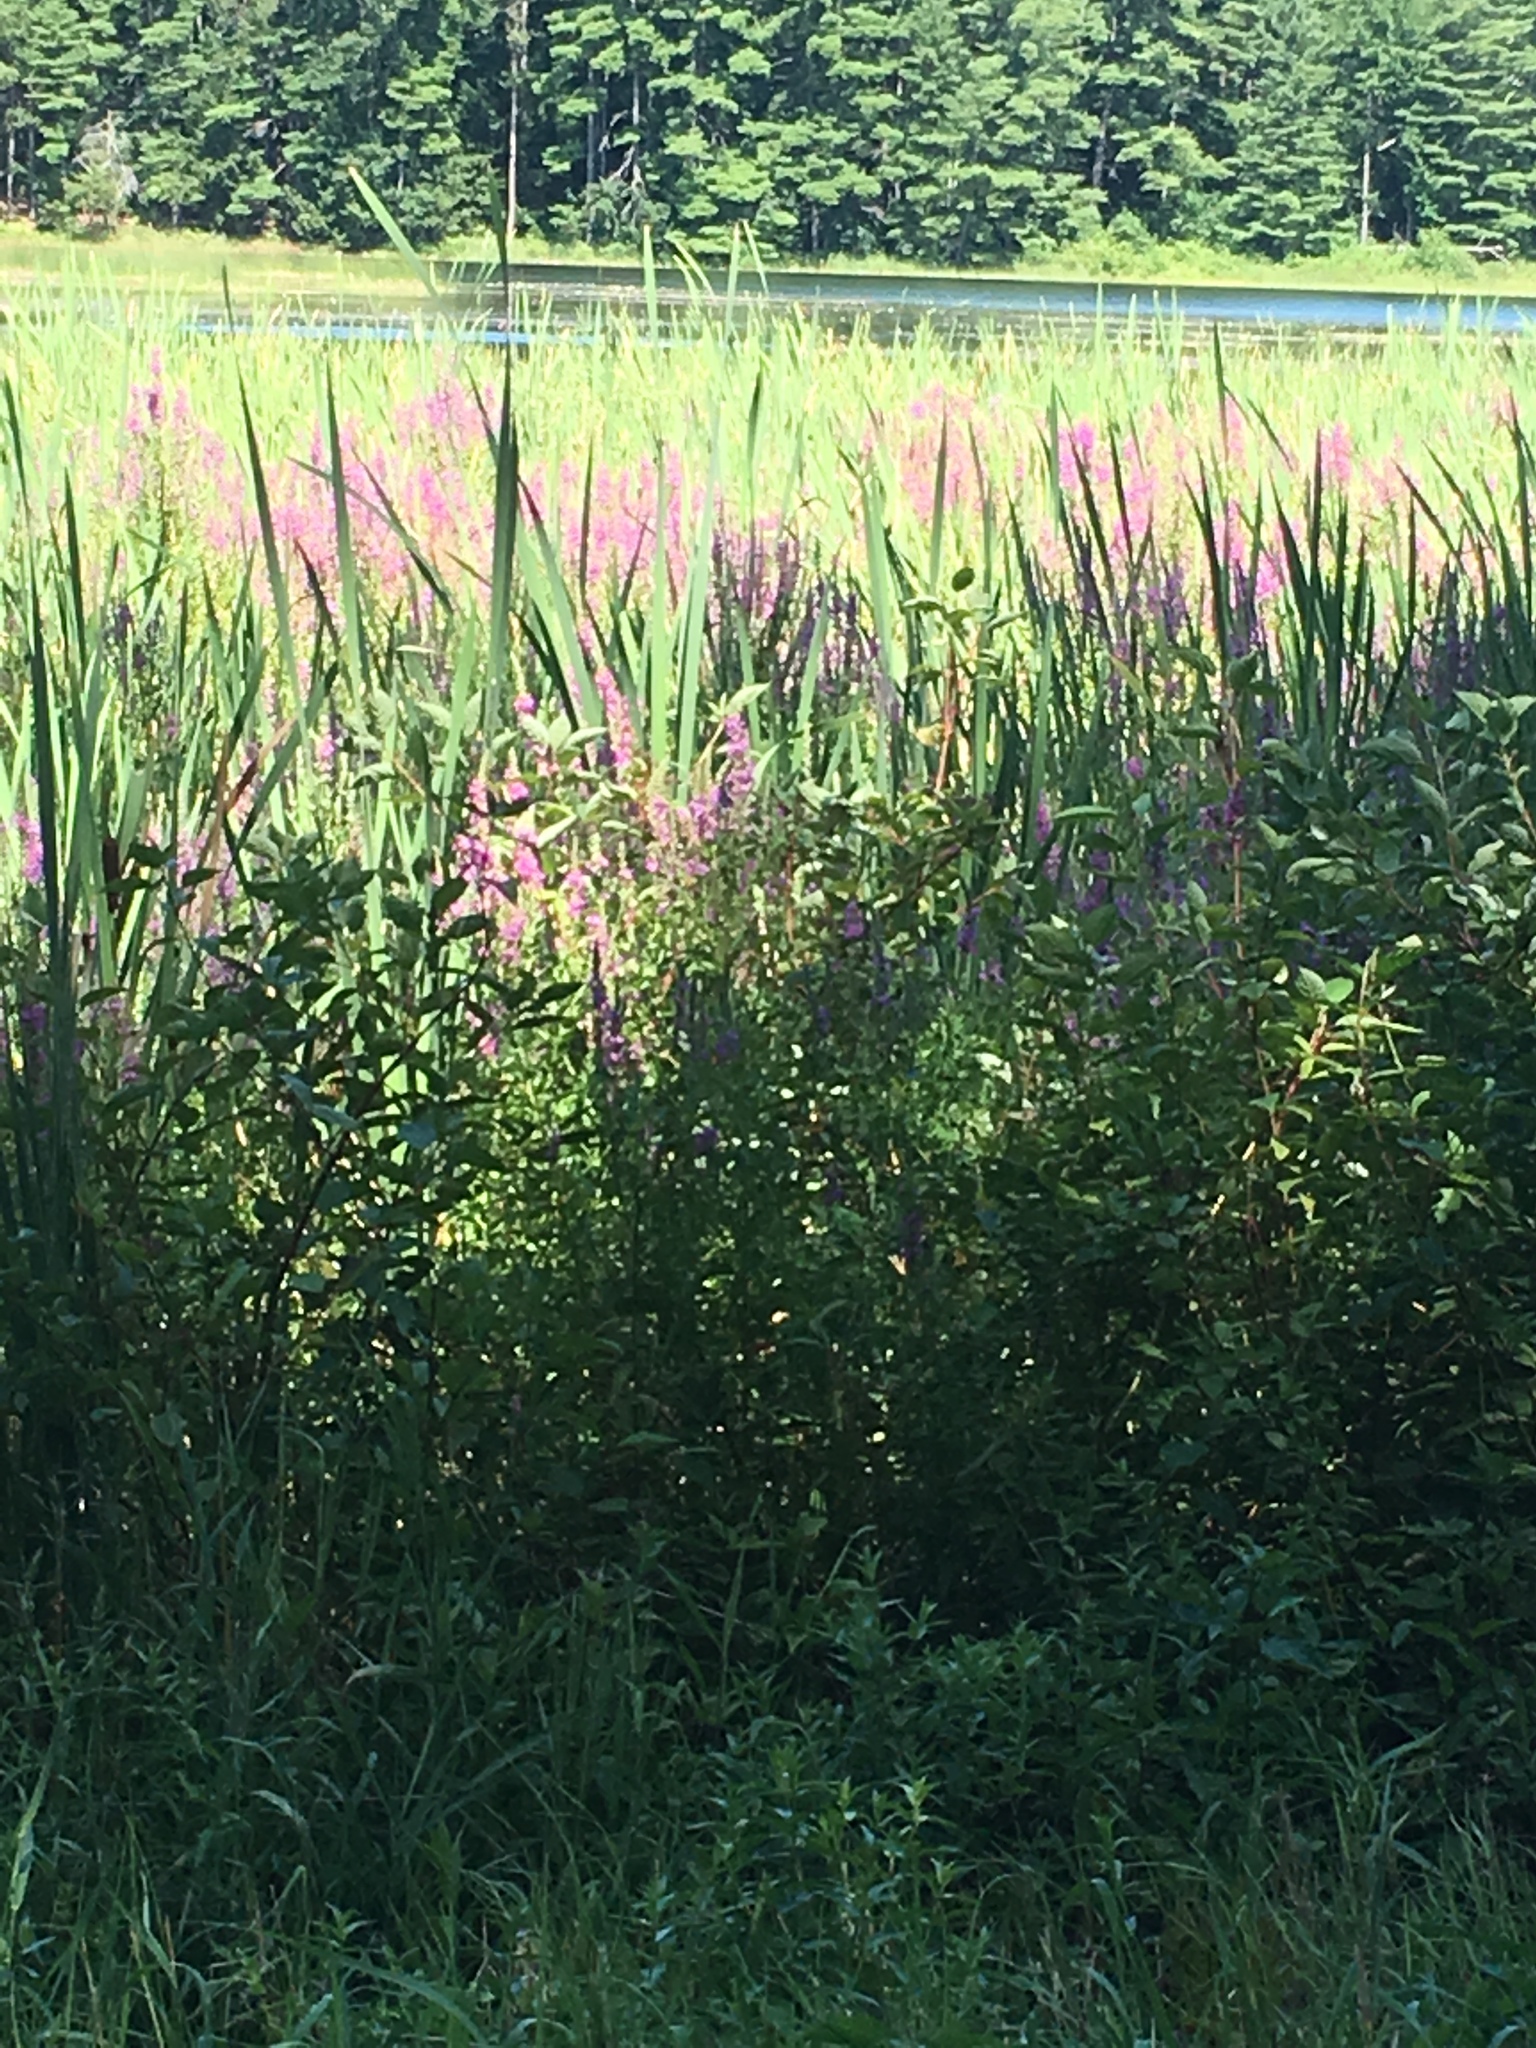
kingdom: Plantae
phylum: Tracheophyta
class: Magnoliopsida
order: Myrtales
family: Lythraceae
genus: Lythrum
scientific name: Lythrum salicaria
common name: Purple loosestrife
